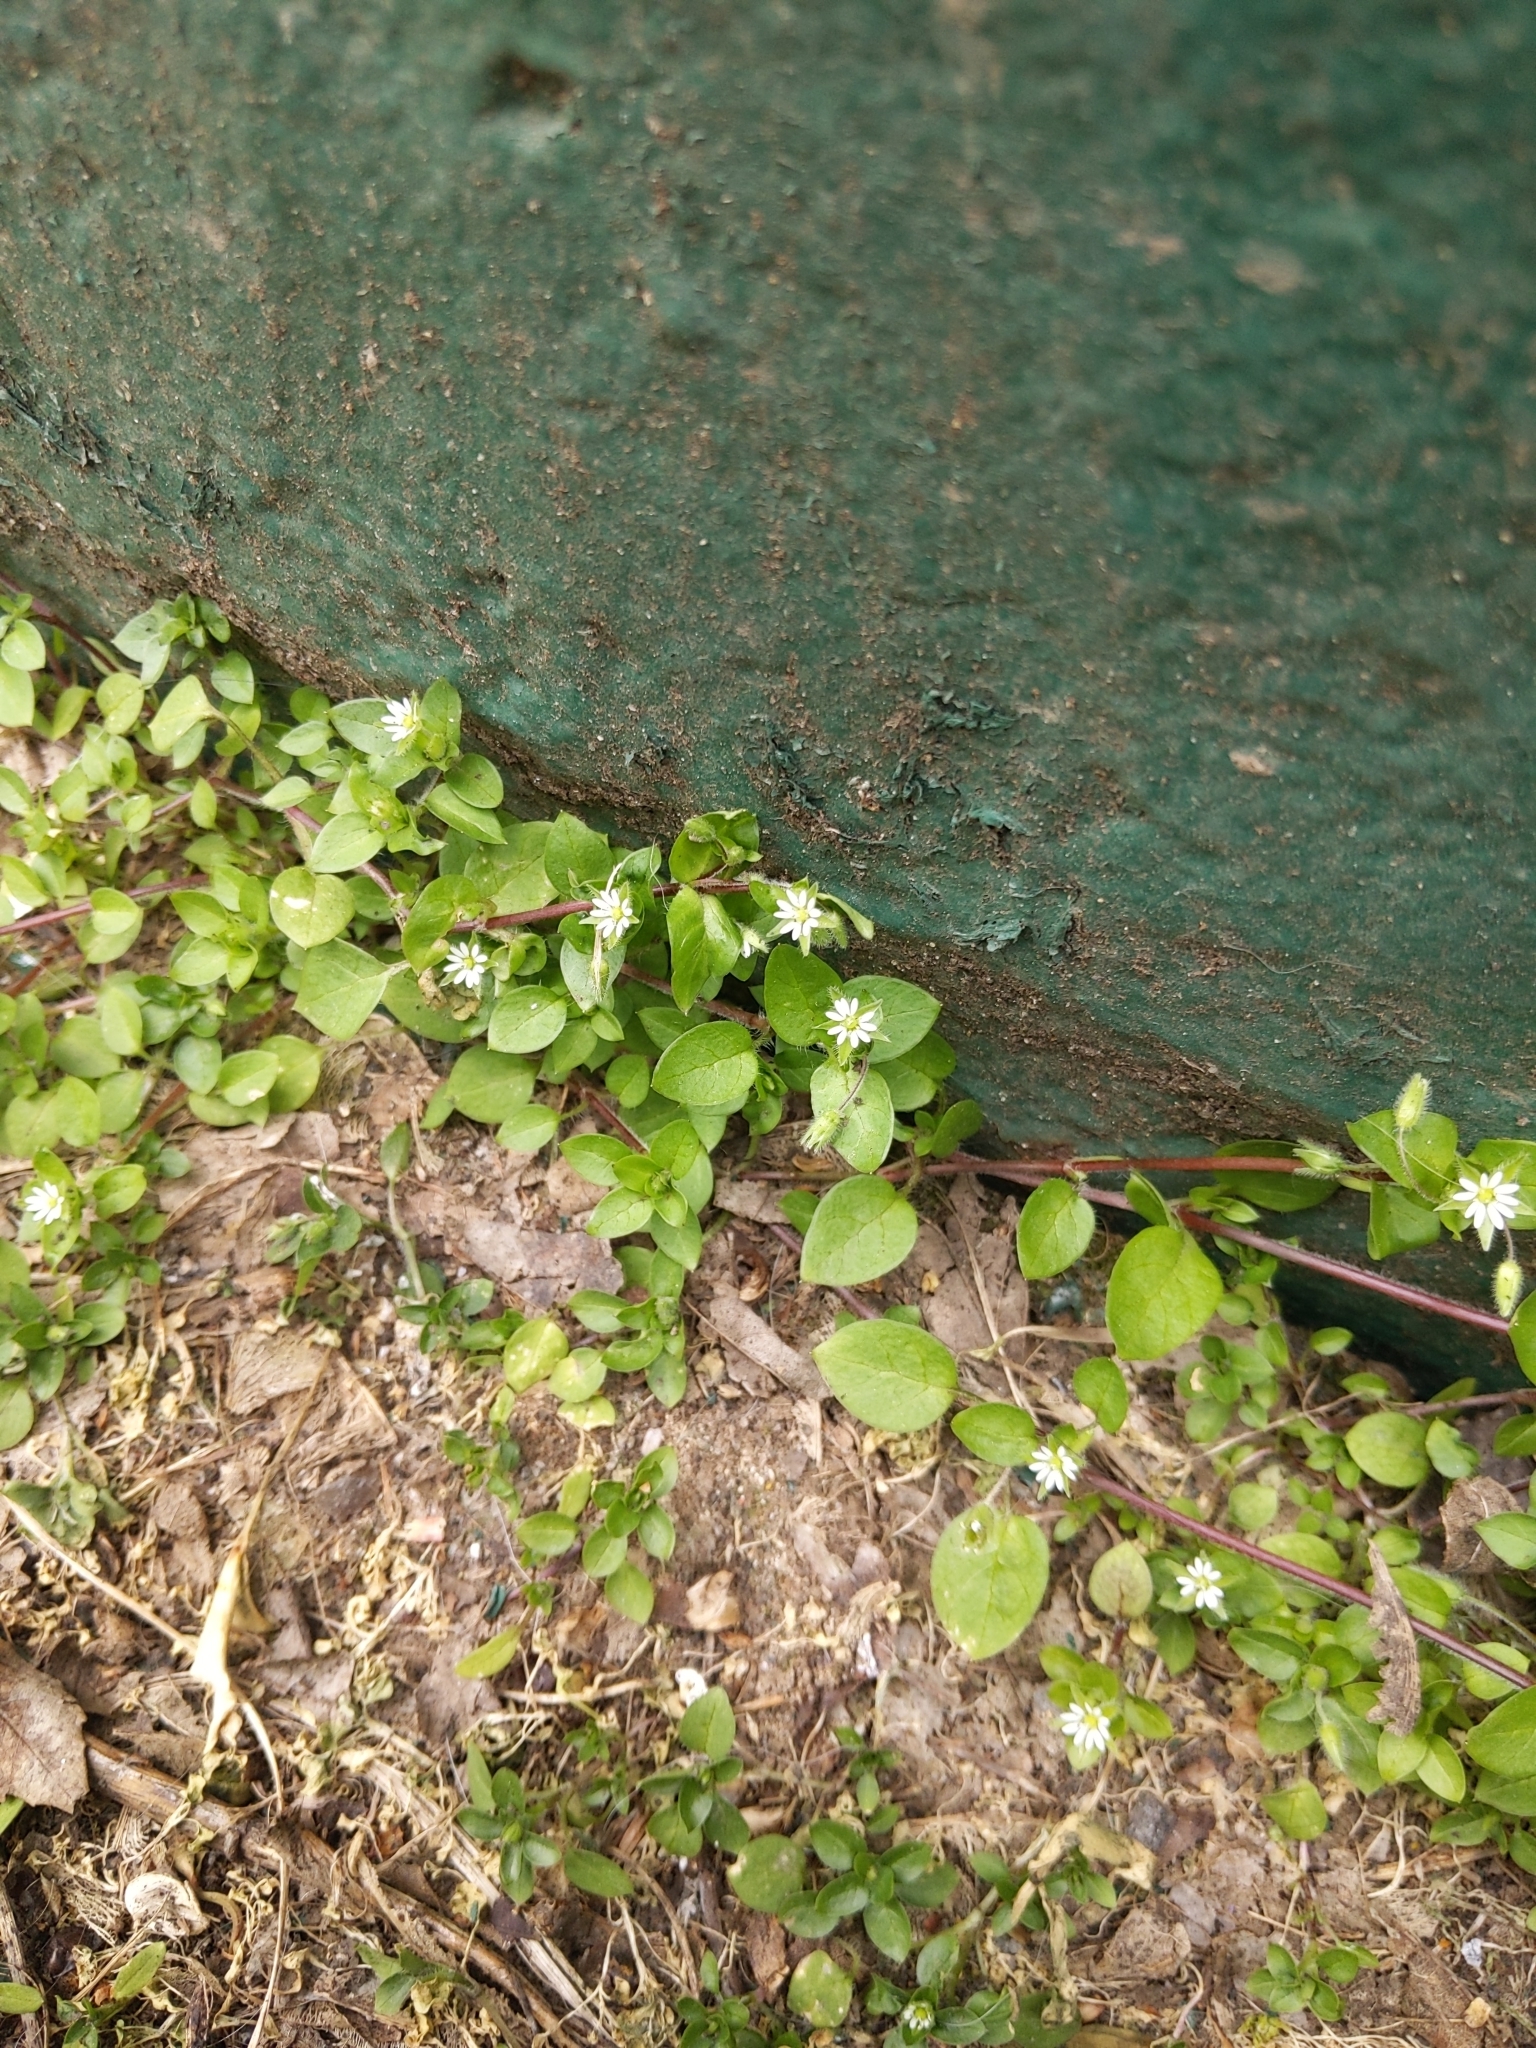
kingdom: Plantae
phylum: Tracheophyta
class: Magnoliopsida
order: Caryophyllales
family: Caryophyllaceae
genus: Stellaria
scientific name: Stellaria media
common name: Common chickweed
